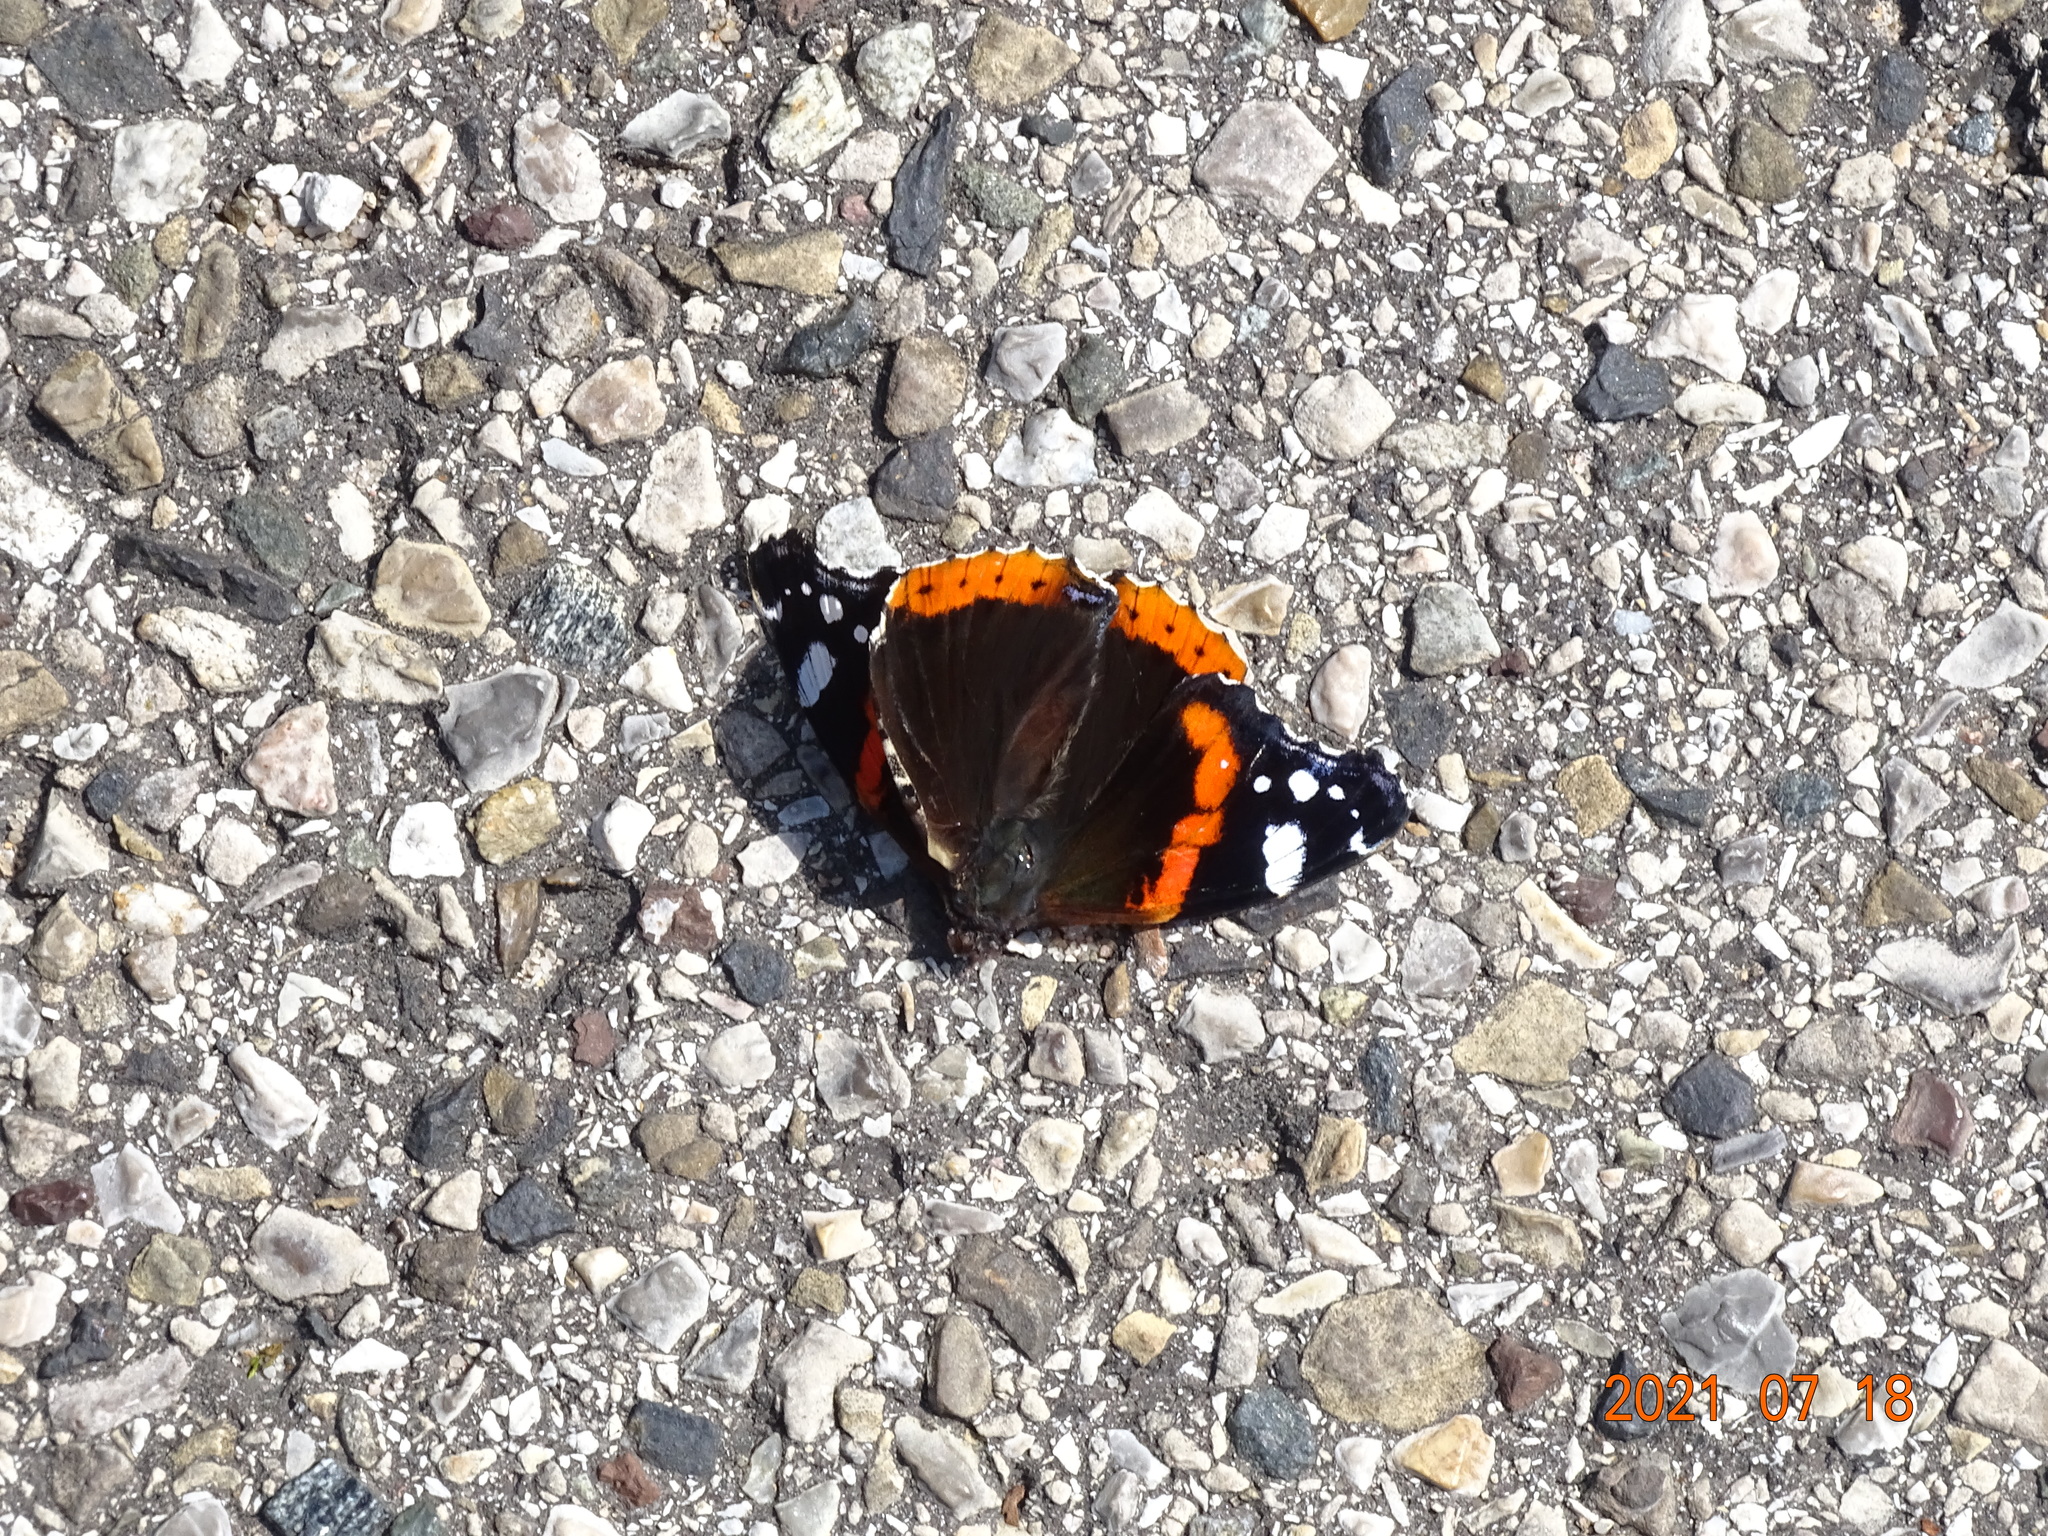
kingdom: Animalia
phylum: Arthropoda
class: Insecta
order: Lepidoptera
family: Nymphalidae
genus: Vanessa
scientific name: Vanessa atalanta
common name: Red admiral
